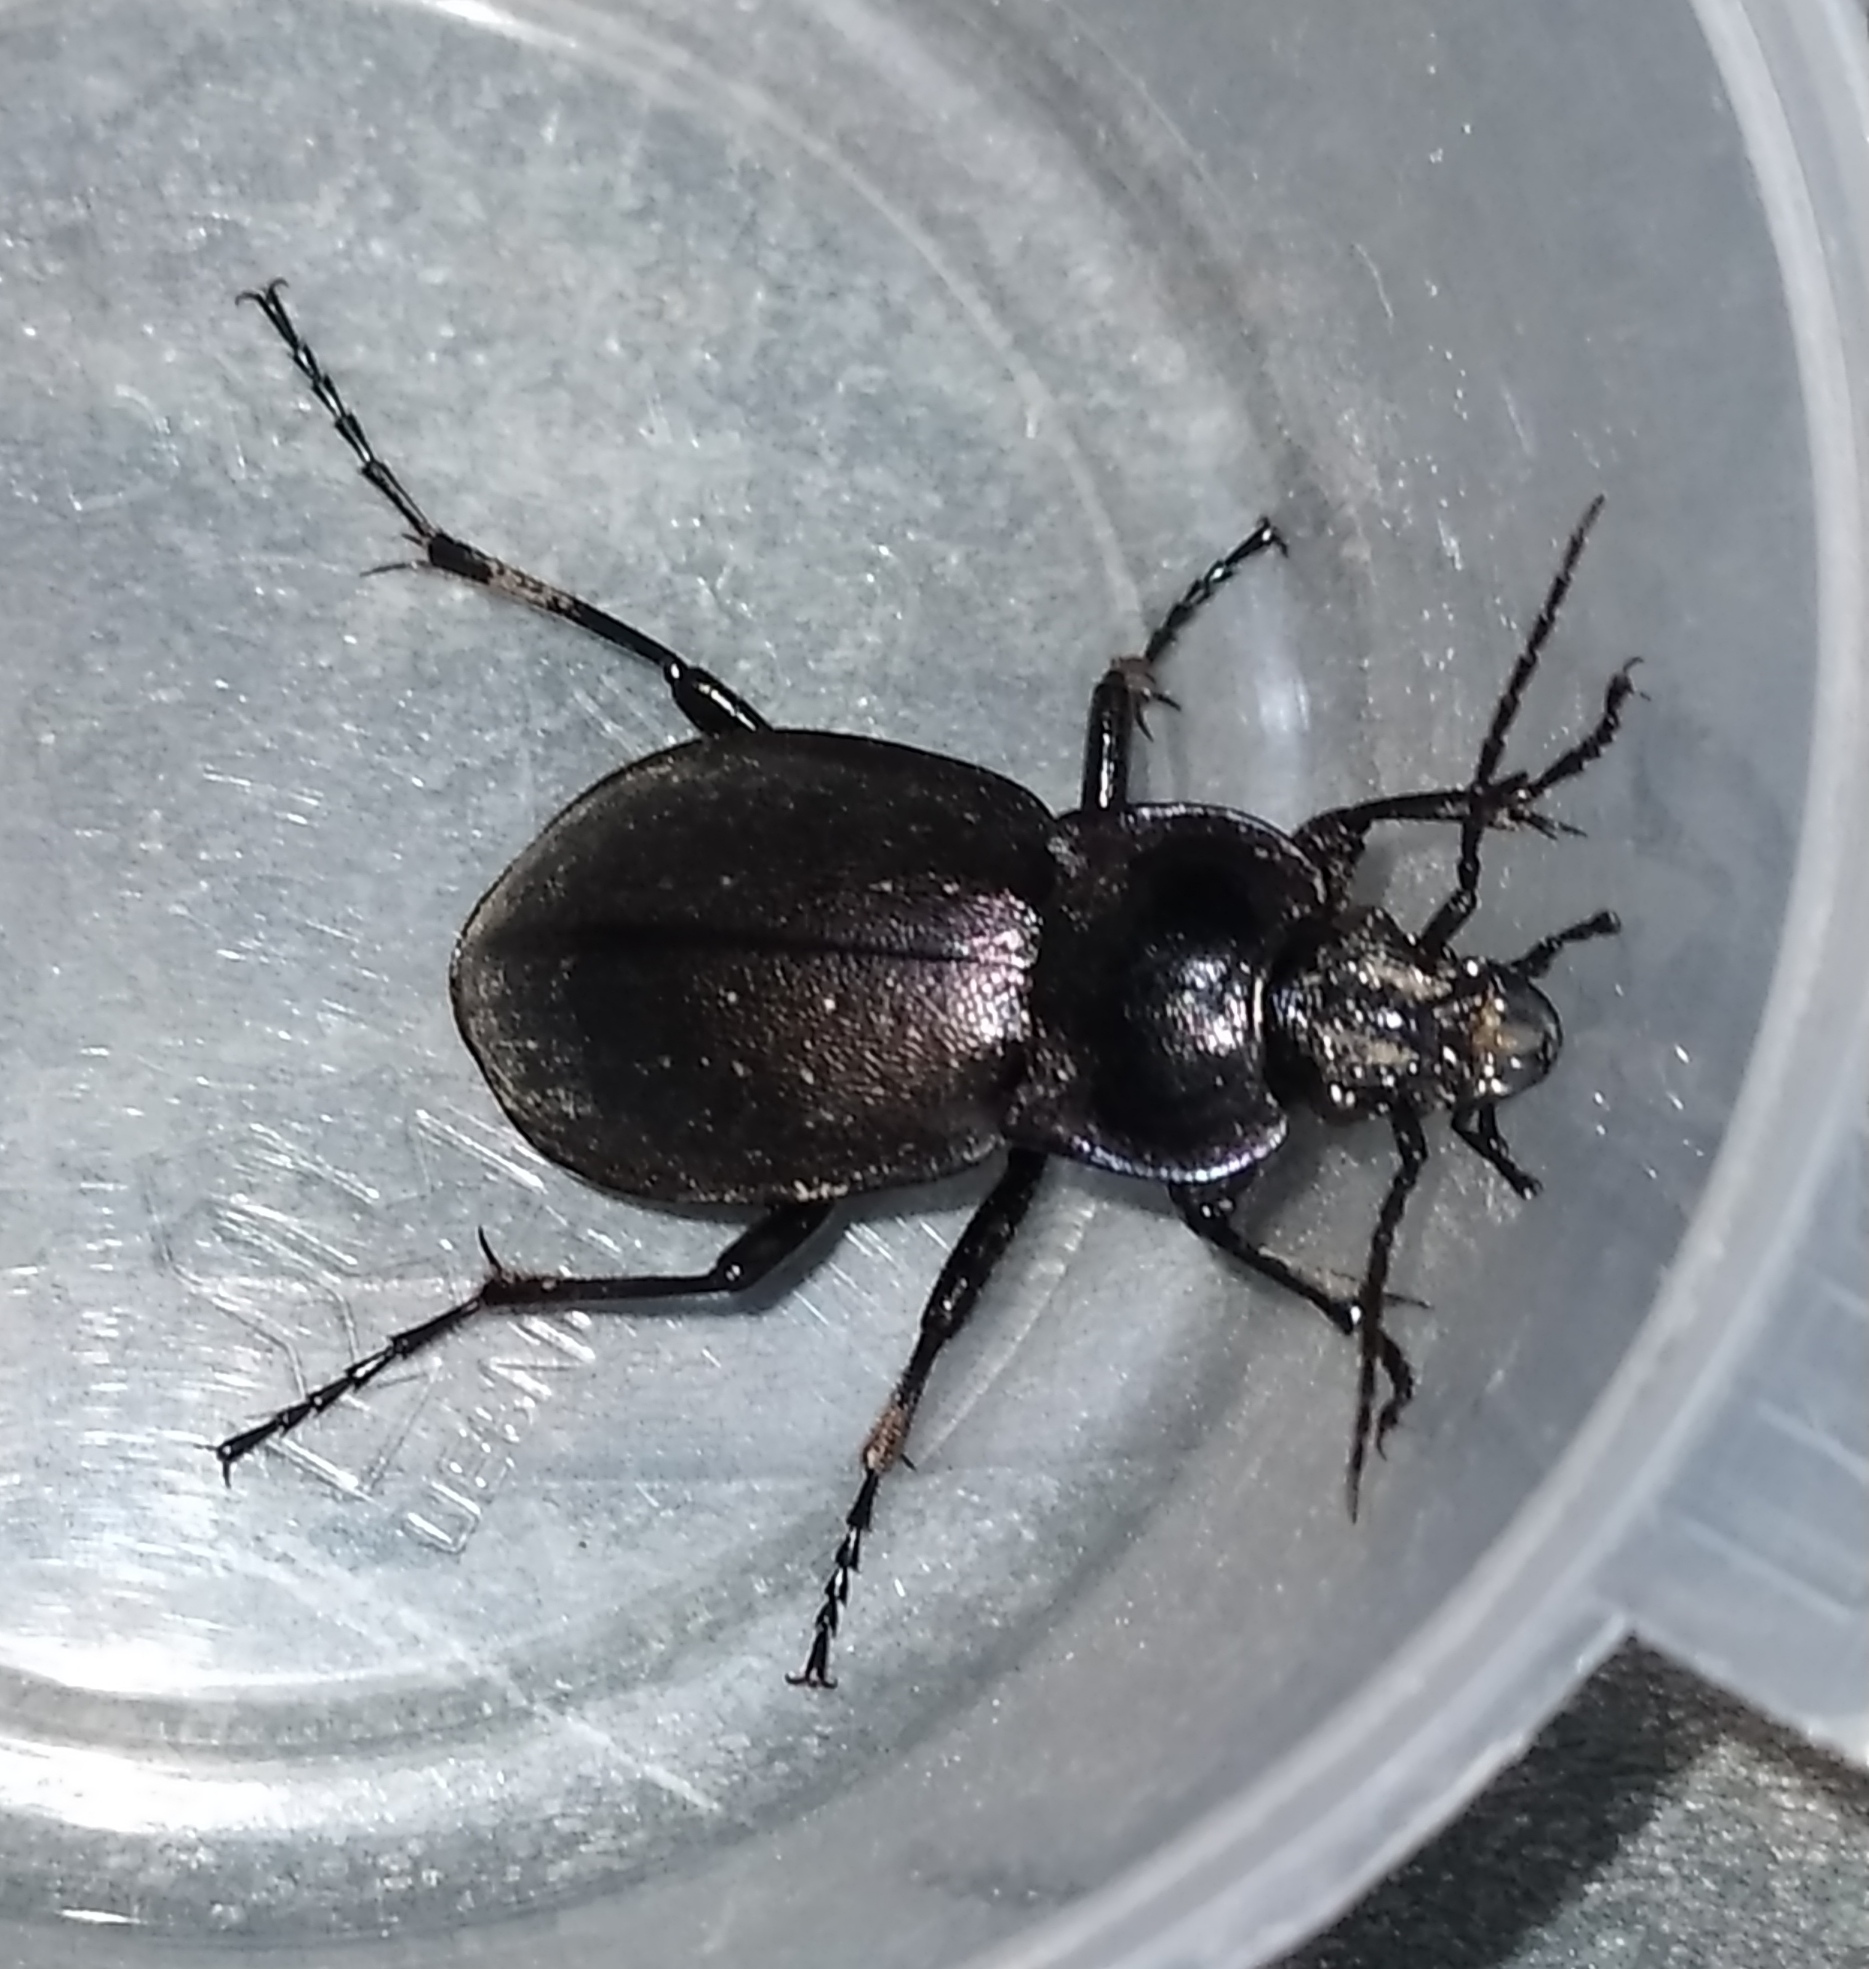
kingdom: Animalia
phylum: Arthropoda
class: Insecta
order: Coleoptera
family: Carabidae
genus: Carabus
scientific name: Carabus nemoralis
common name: European ground beetle
